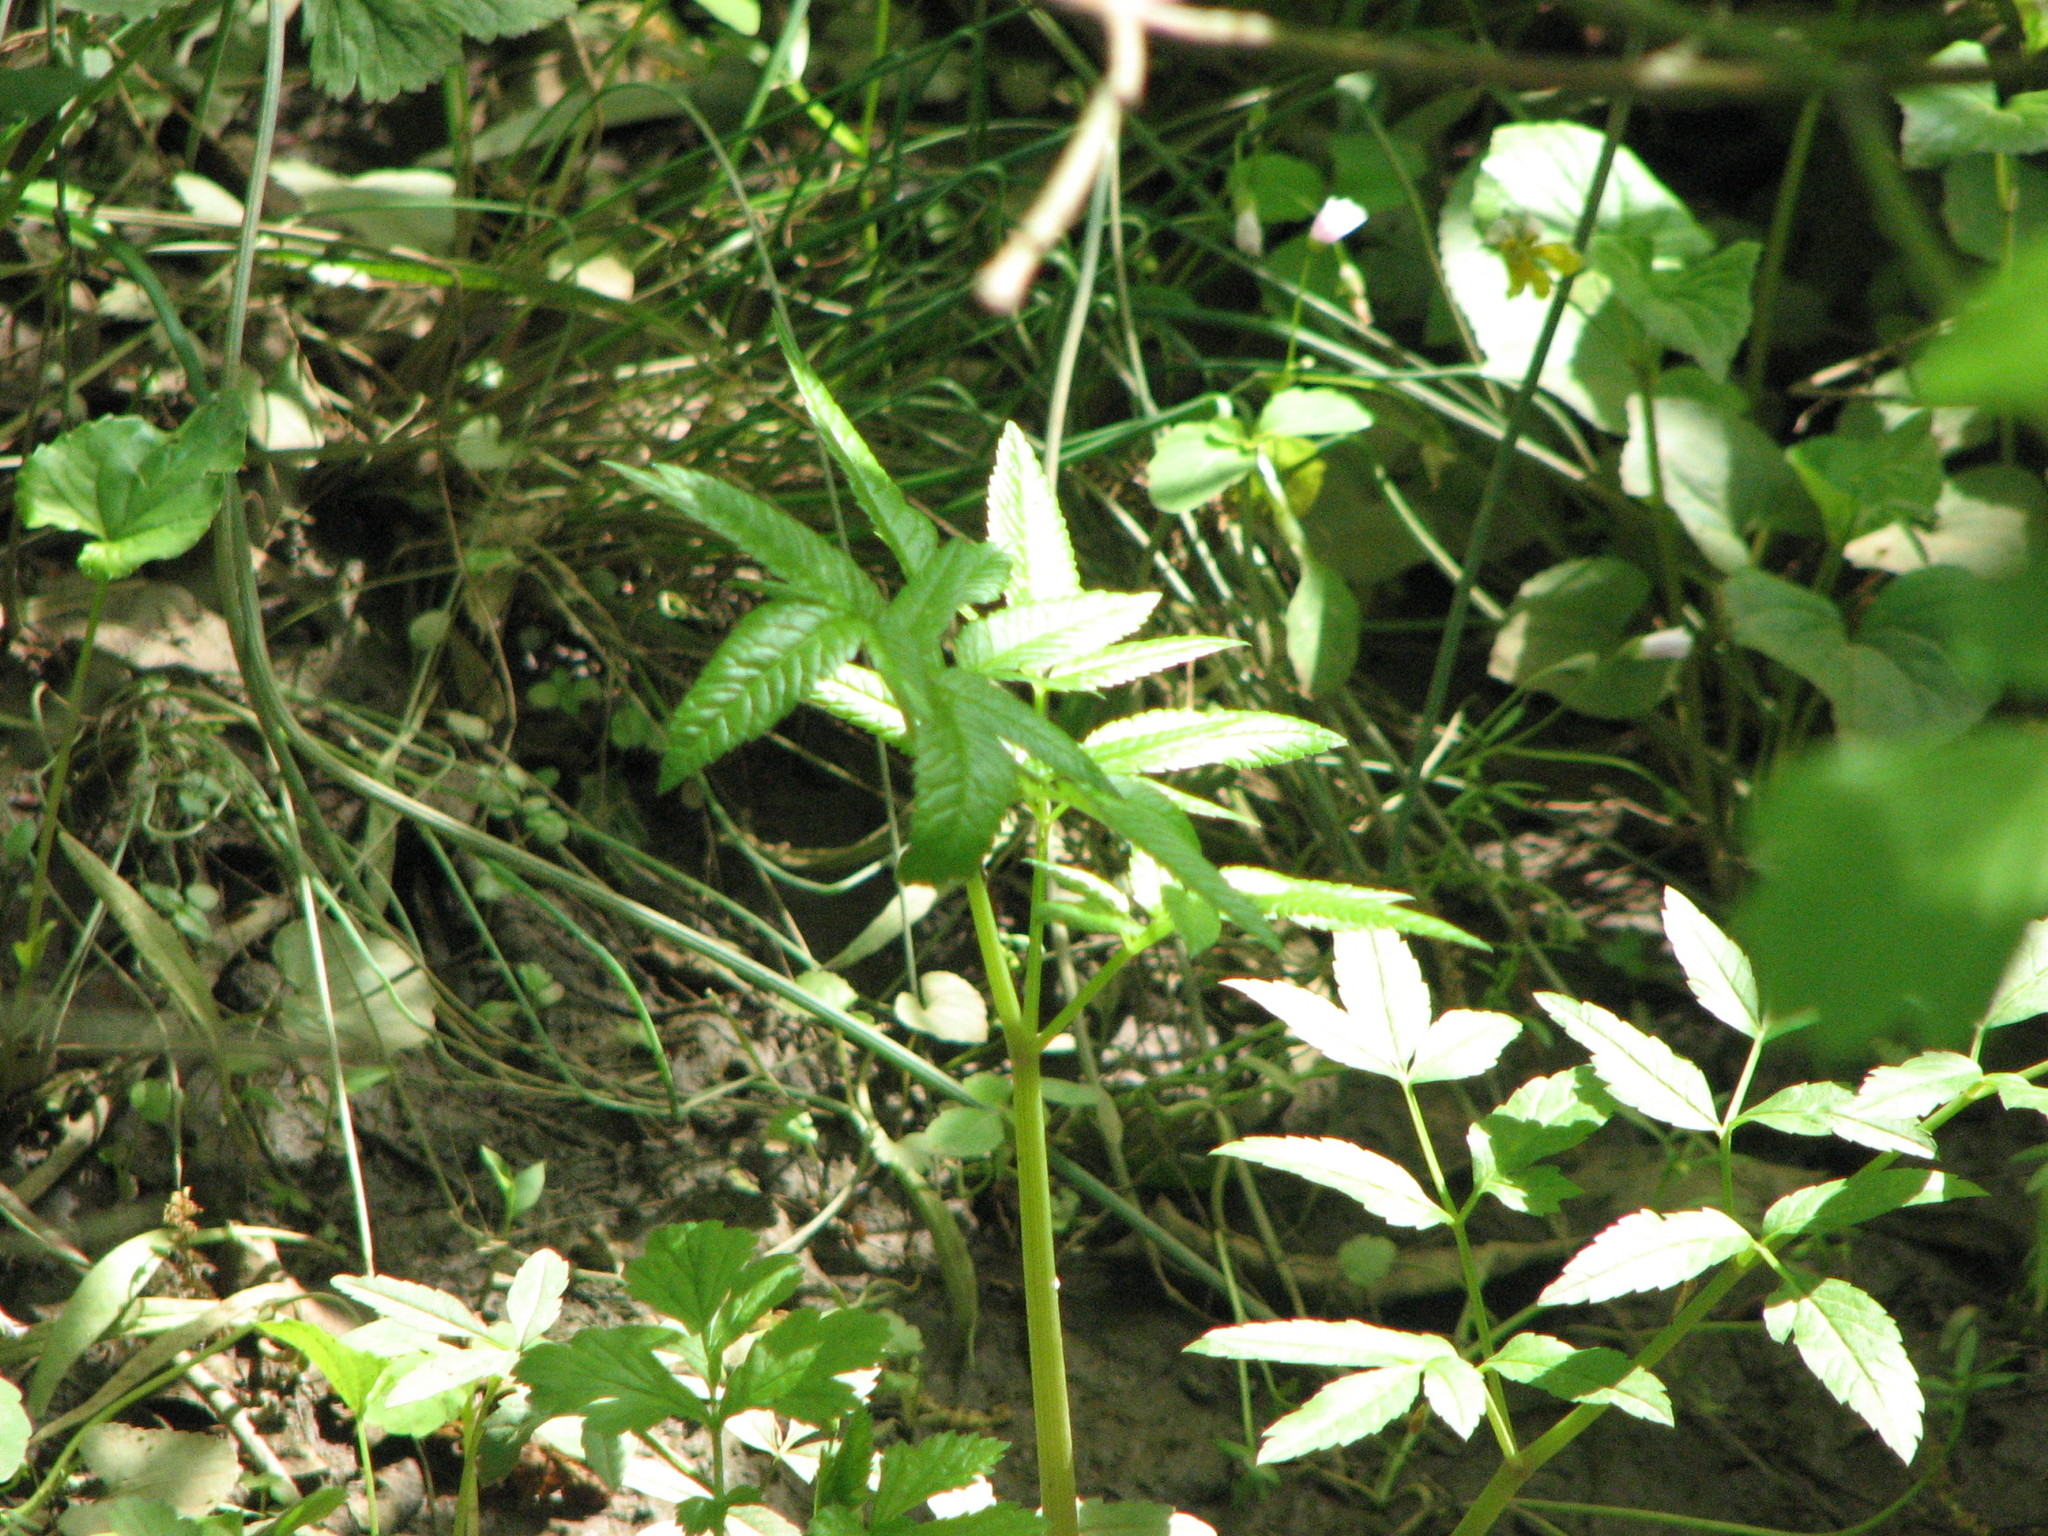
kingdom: Plantae
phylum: Tracheophyta
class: Magnoliopsida
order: Apiales
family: Apiaceae
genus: Cicuta
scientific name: Cicuta maculata
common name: Spotted cowbane
